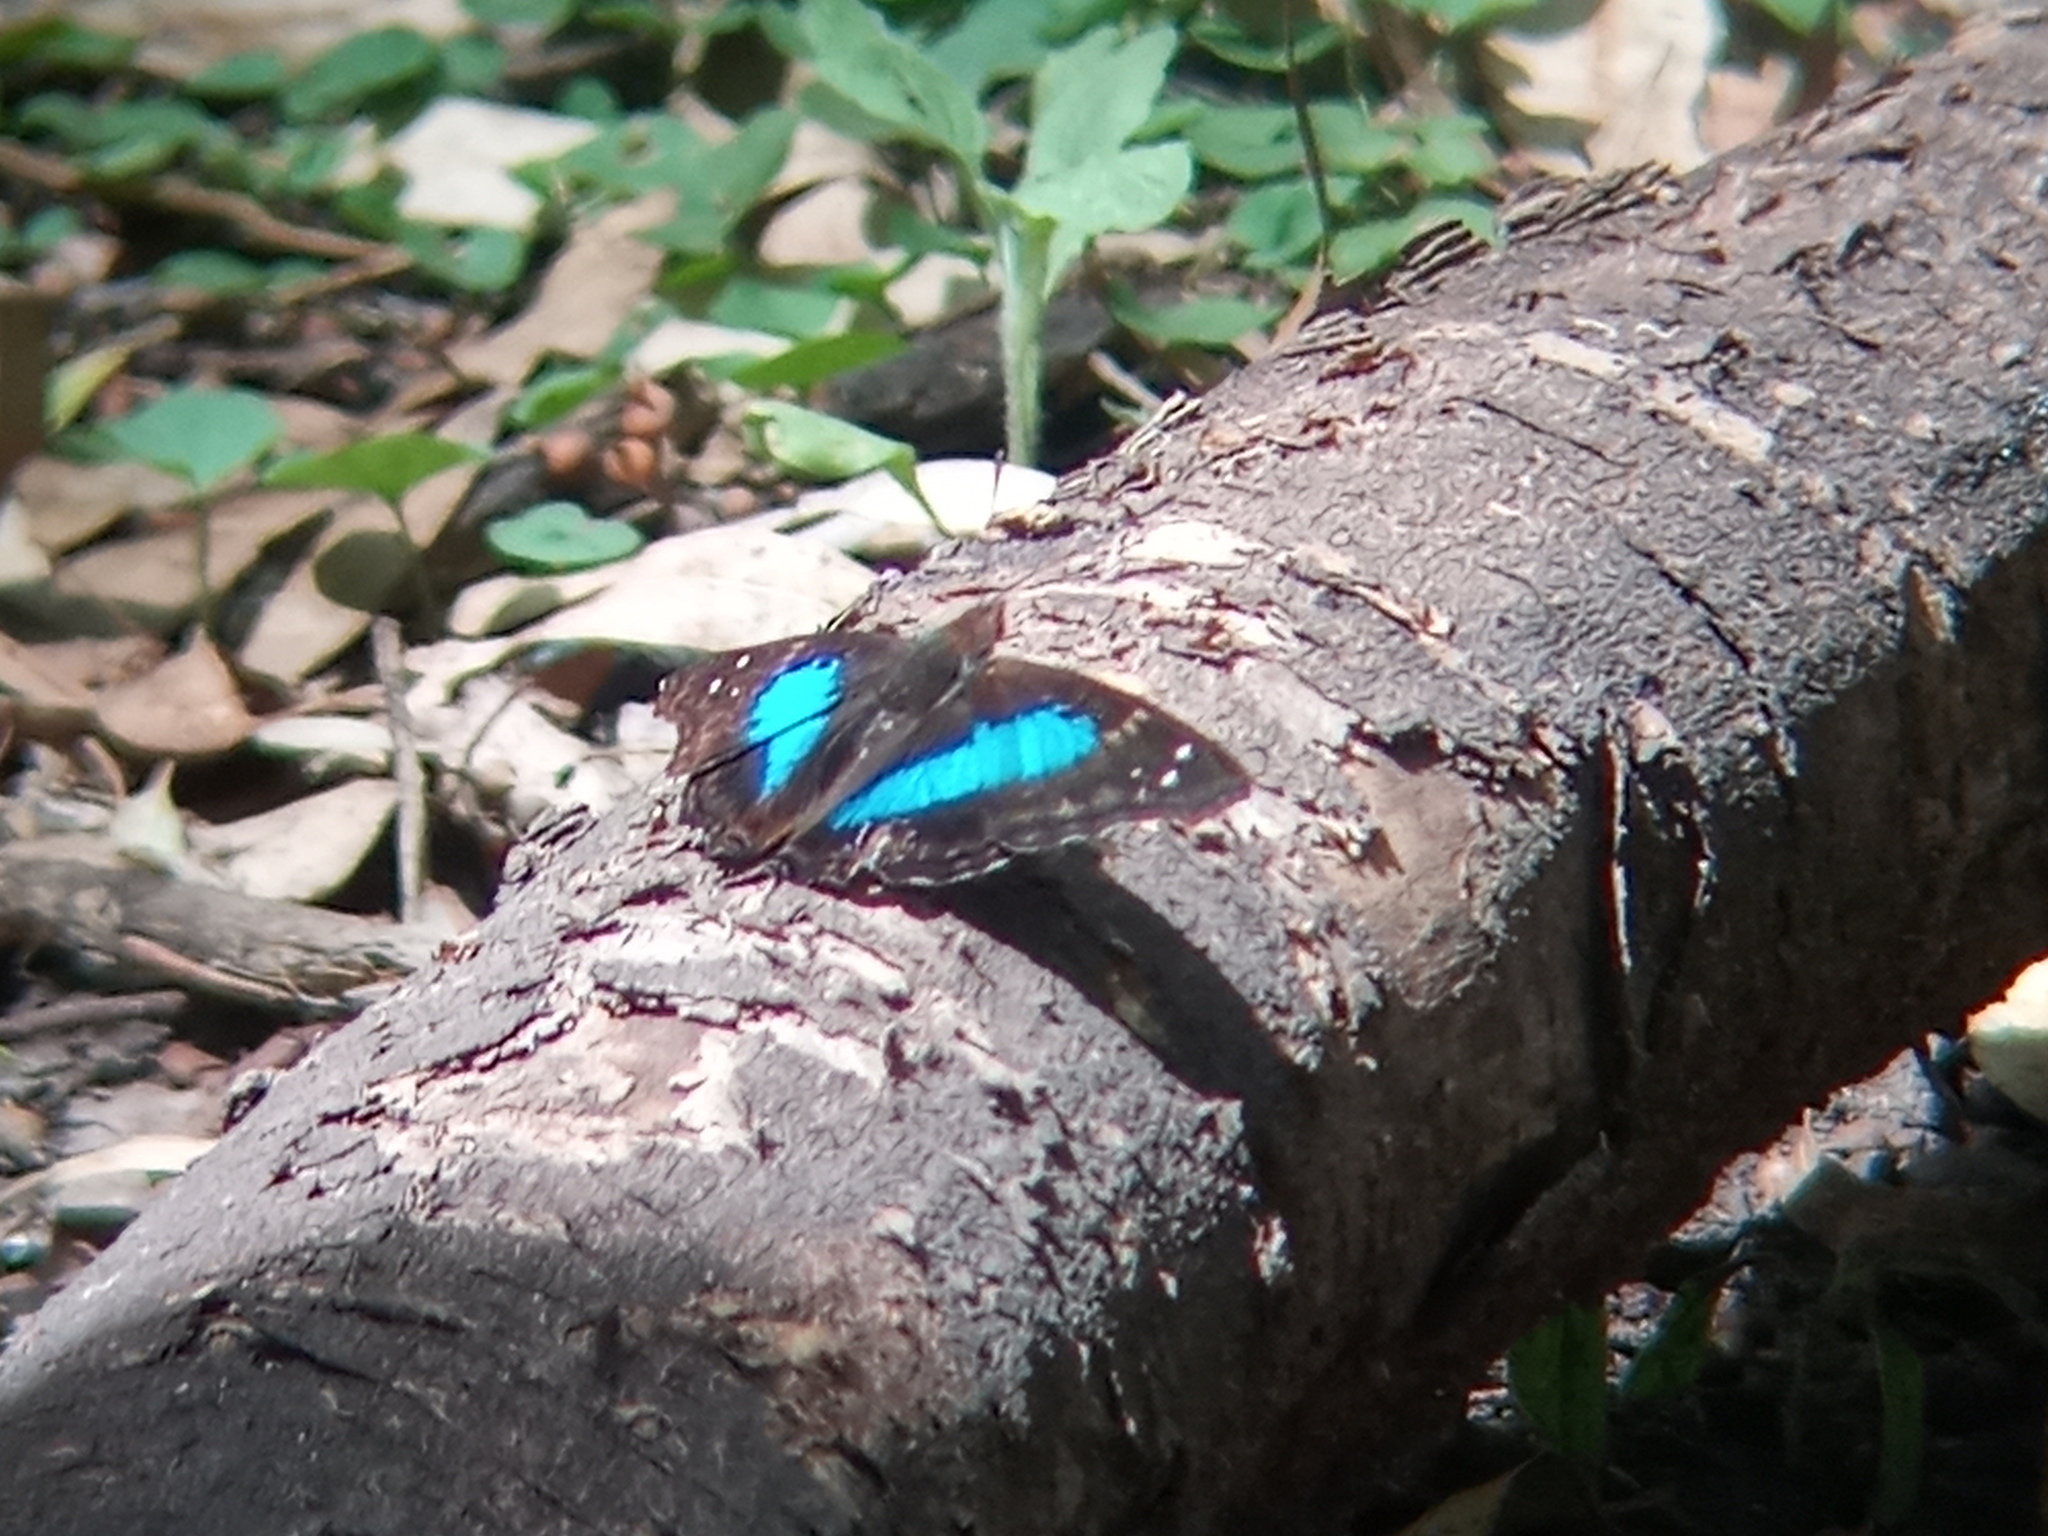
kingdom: Animalia
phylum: Arthropoda
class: Insecta
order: Lepidoptera
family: Nymphalidae
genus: Doxocopa
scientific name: Doxocopa laurentia
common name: Turquoise emperor
